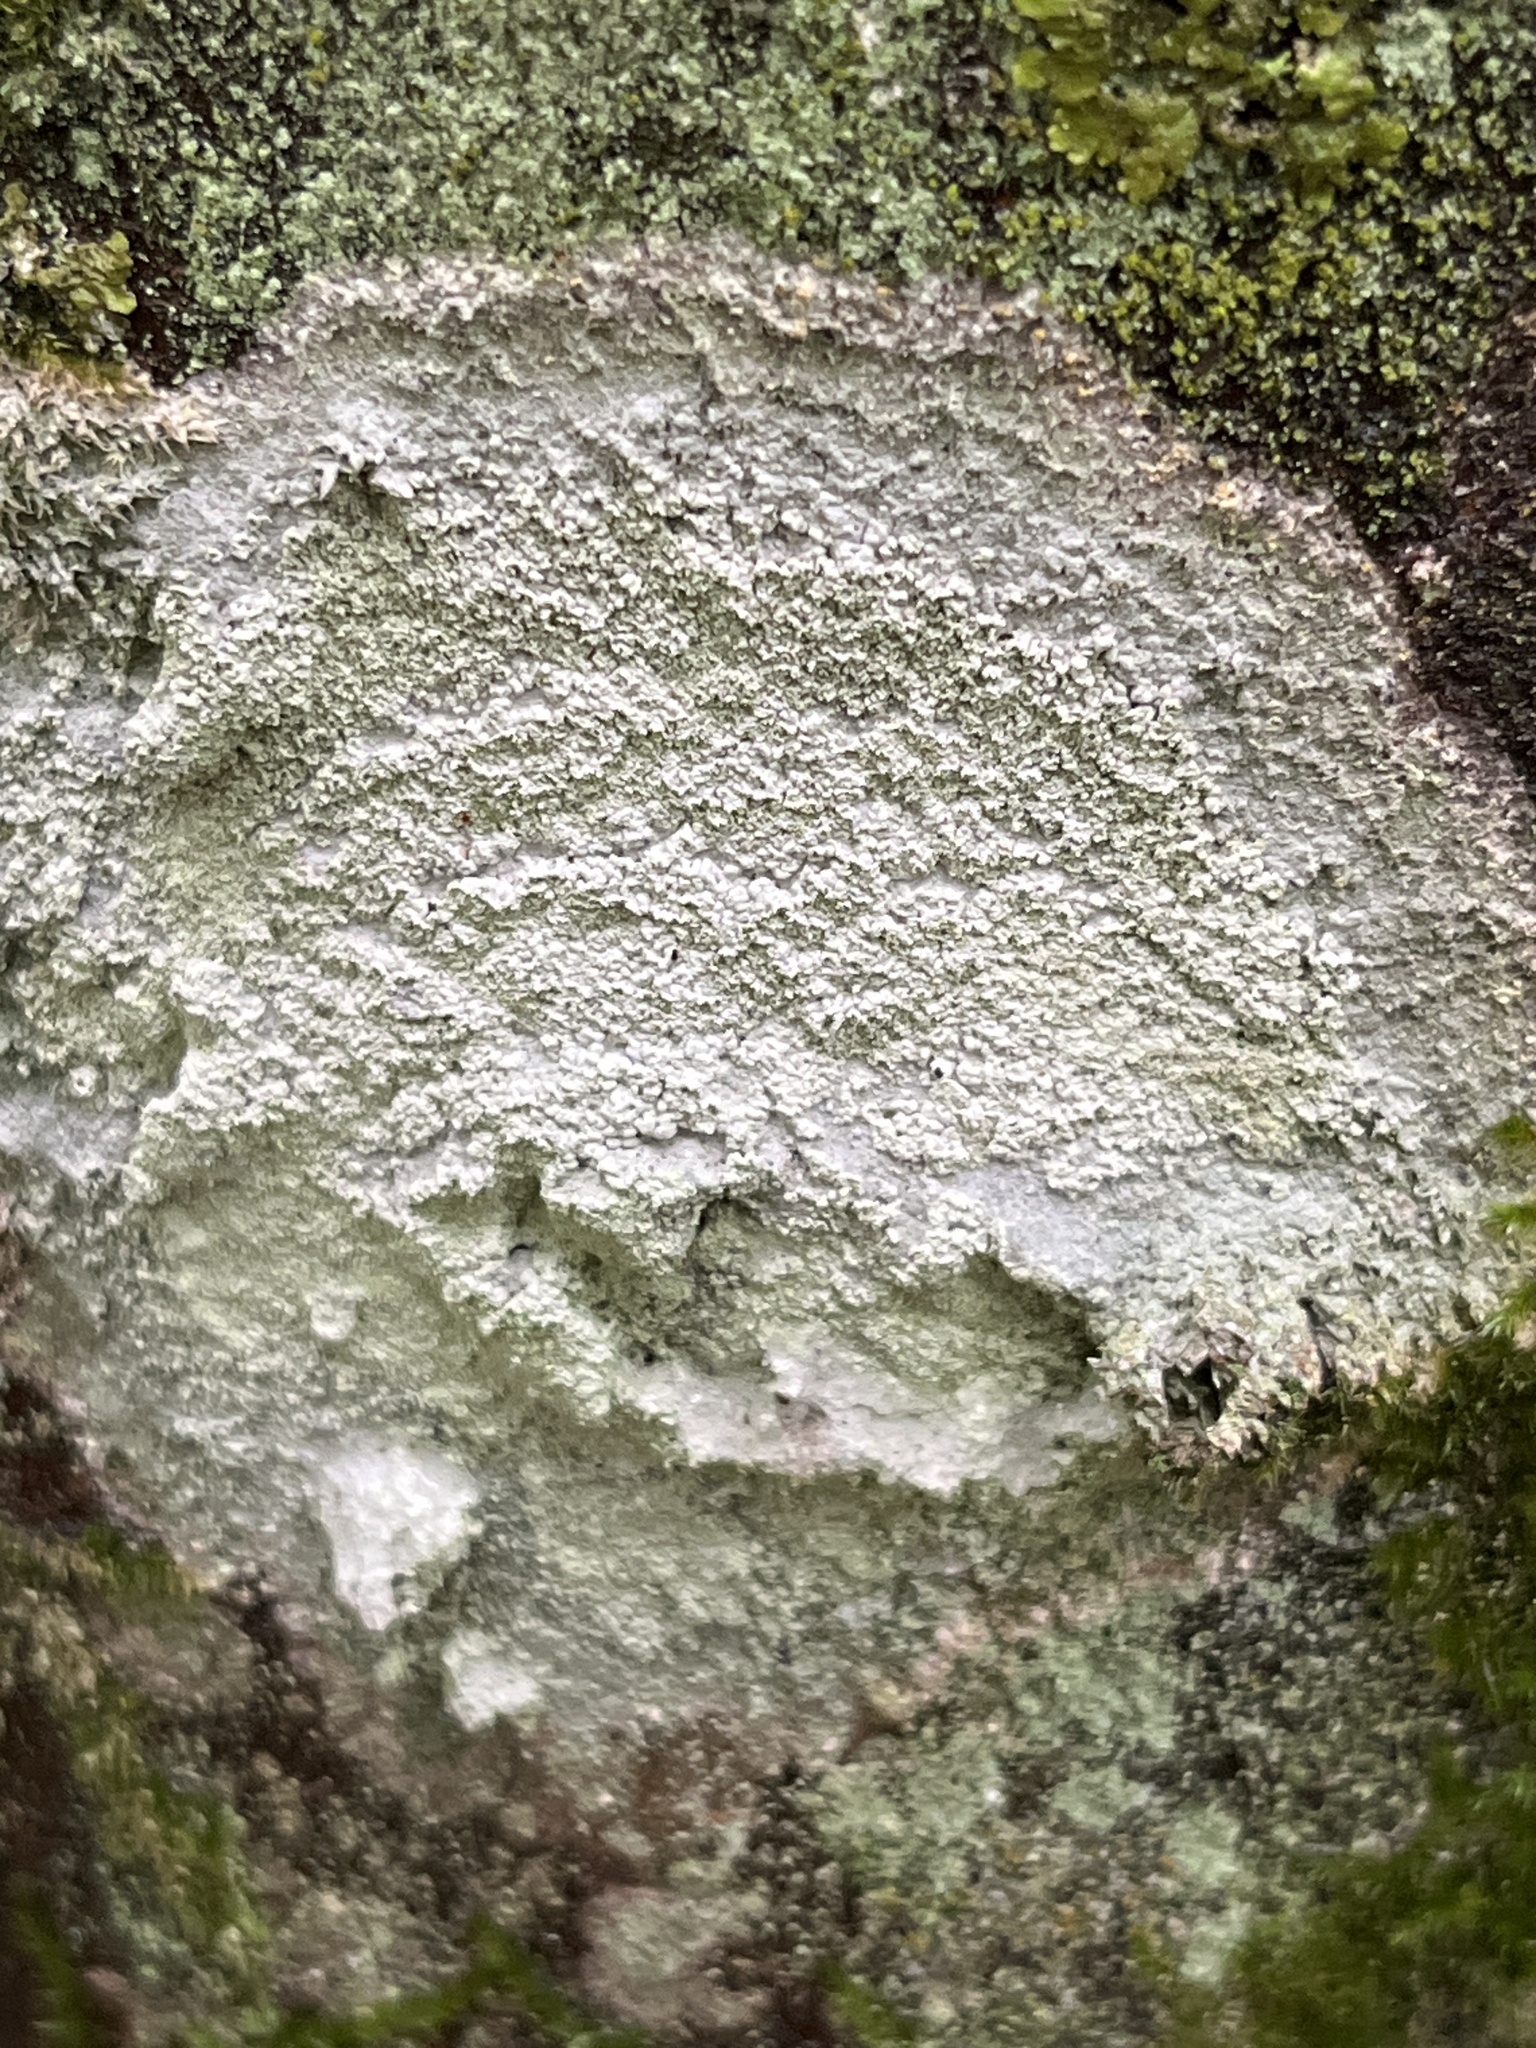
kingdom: Fungi
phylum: Ascomycota
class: Lecanoromycetes
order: Ostropales
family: Phlyctidaceae
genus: Phlyctis
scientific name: Phlyctis argena
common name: Whitewash lichen
